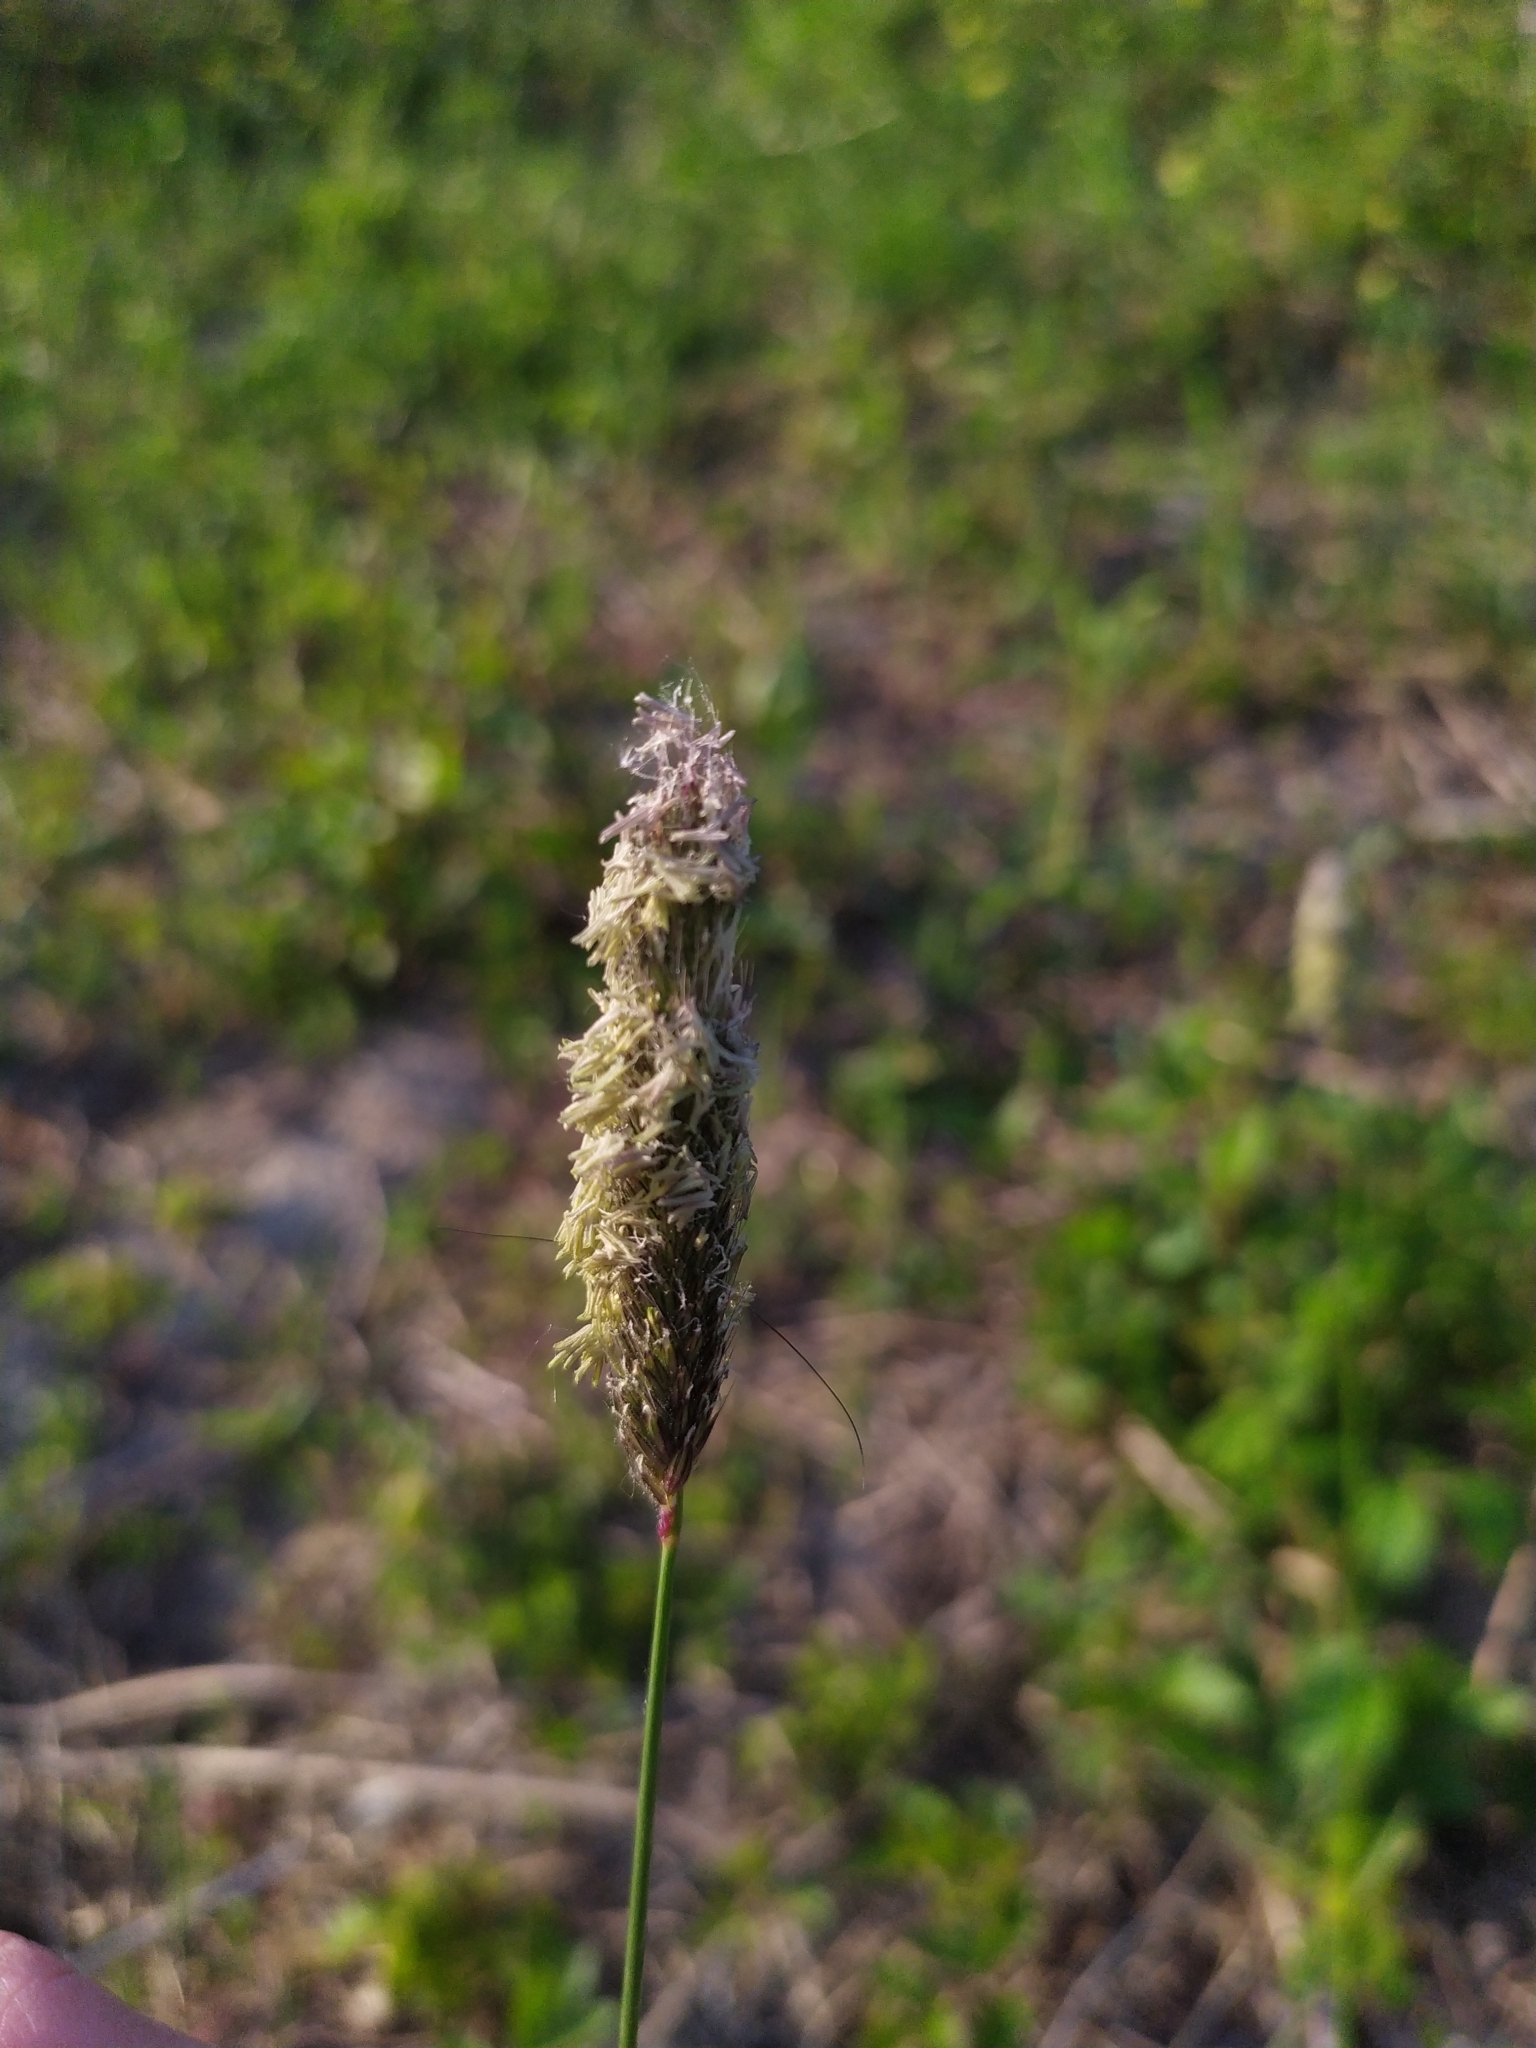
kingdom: Plantae
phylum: Tracheophyta
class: Liliopsida
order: Poales
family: Poaceae
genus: Alopecurus
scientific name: Alopecurus pratensis
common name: Meadow foxtail
